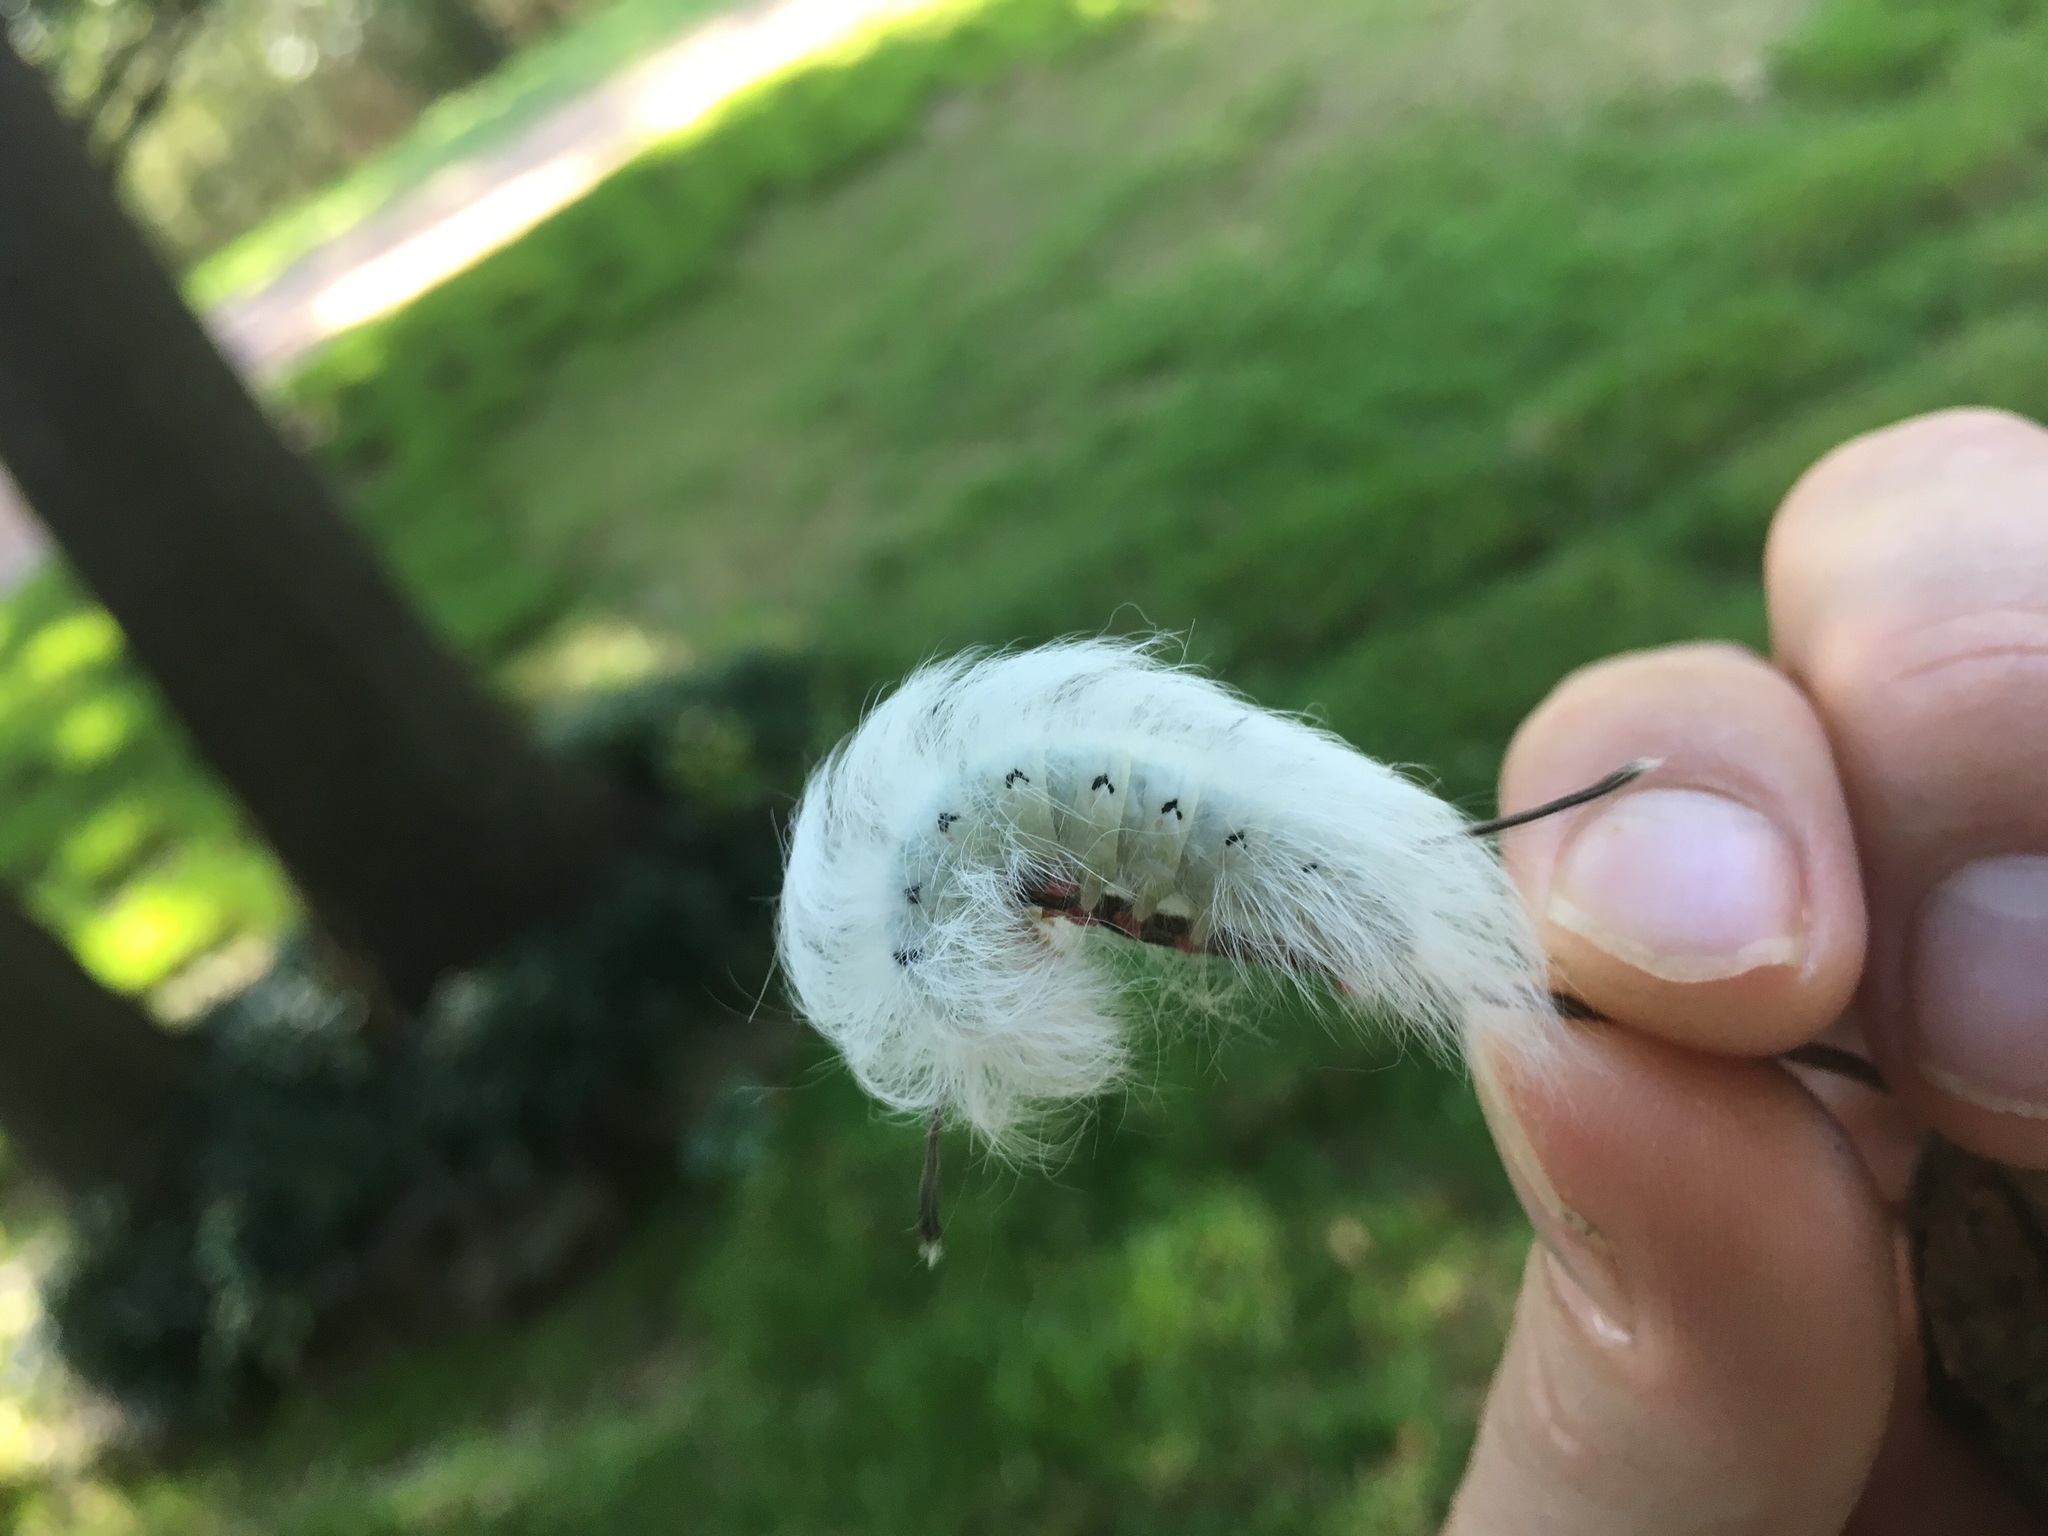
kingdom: Animalia
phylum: Arthropoda
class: Insecta
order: Lepidoptera
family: Apatelodidae
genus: Hygrochroa
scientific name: Hygrochroa Apatelodes torrefacta
